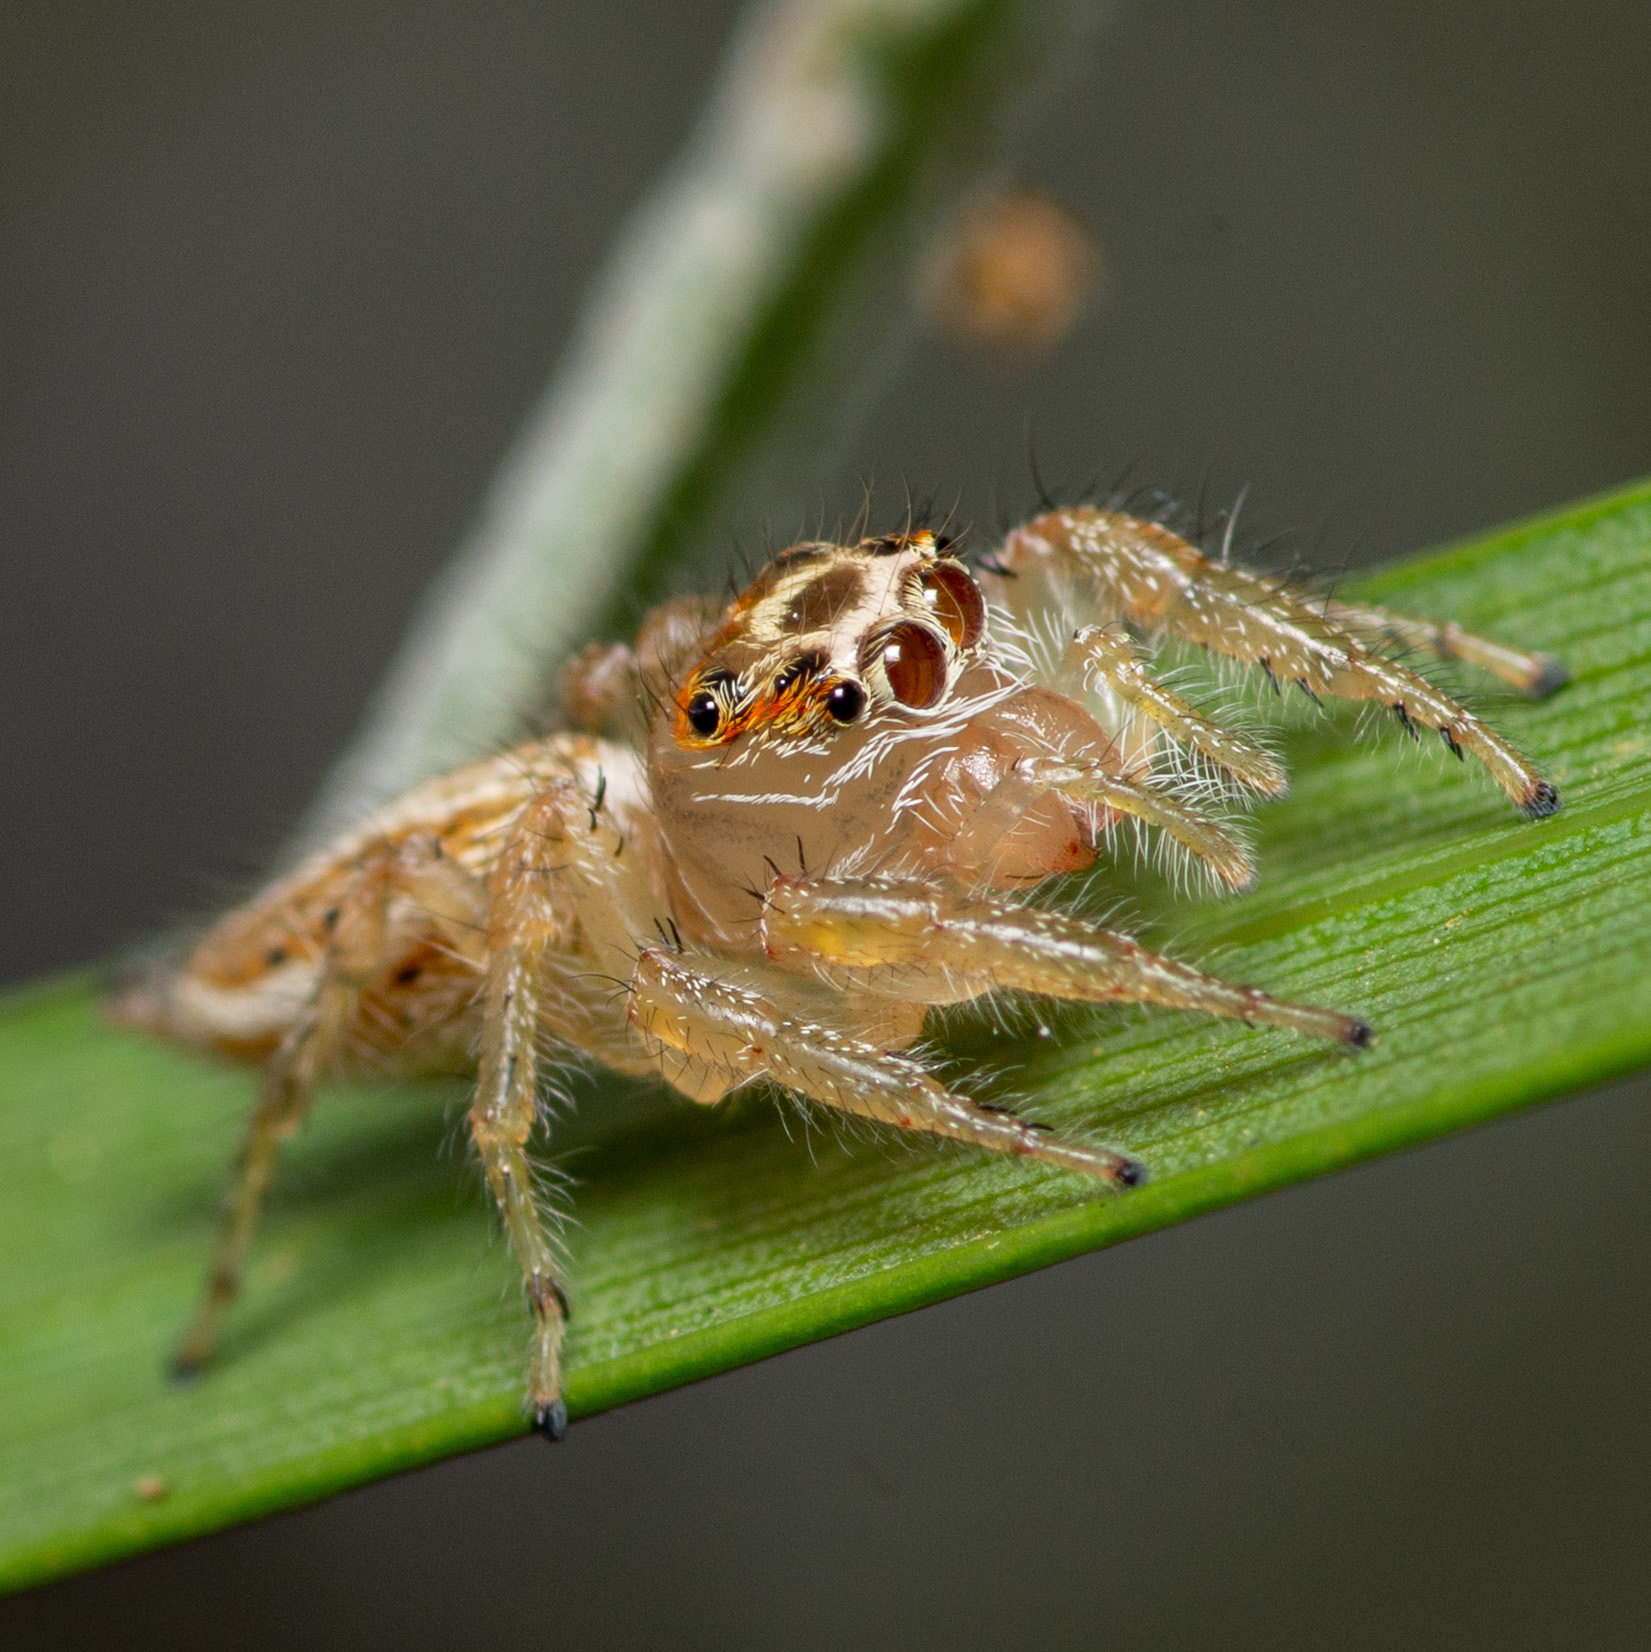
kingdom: Animalia
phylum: Arthropoda
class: Arachnida
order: Araneae
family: Salticidae
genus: Colonus
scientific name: Colonus sylvanus
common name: Jumping spiders
